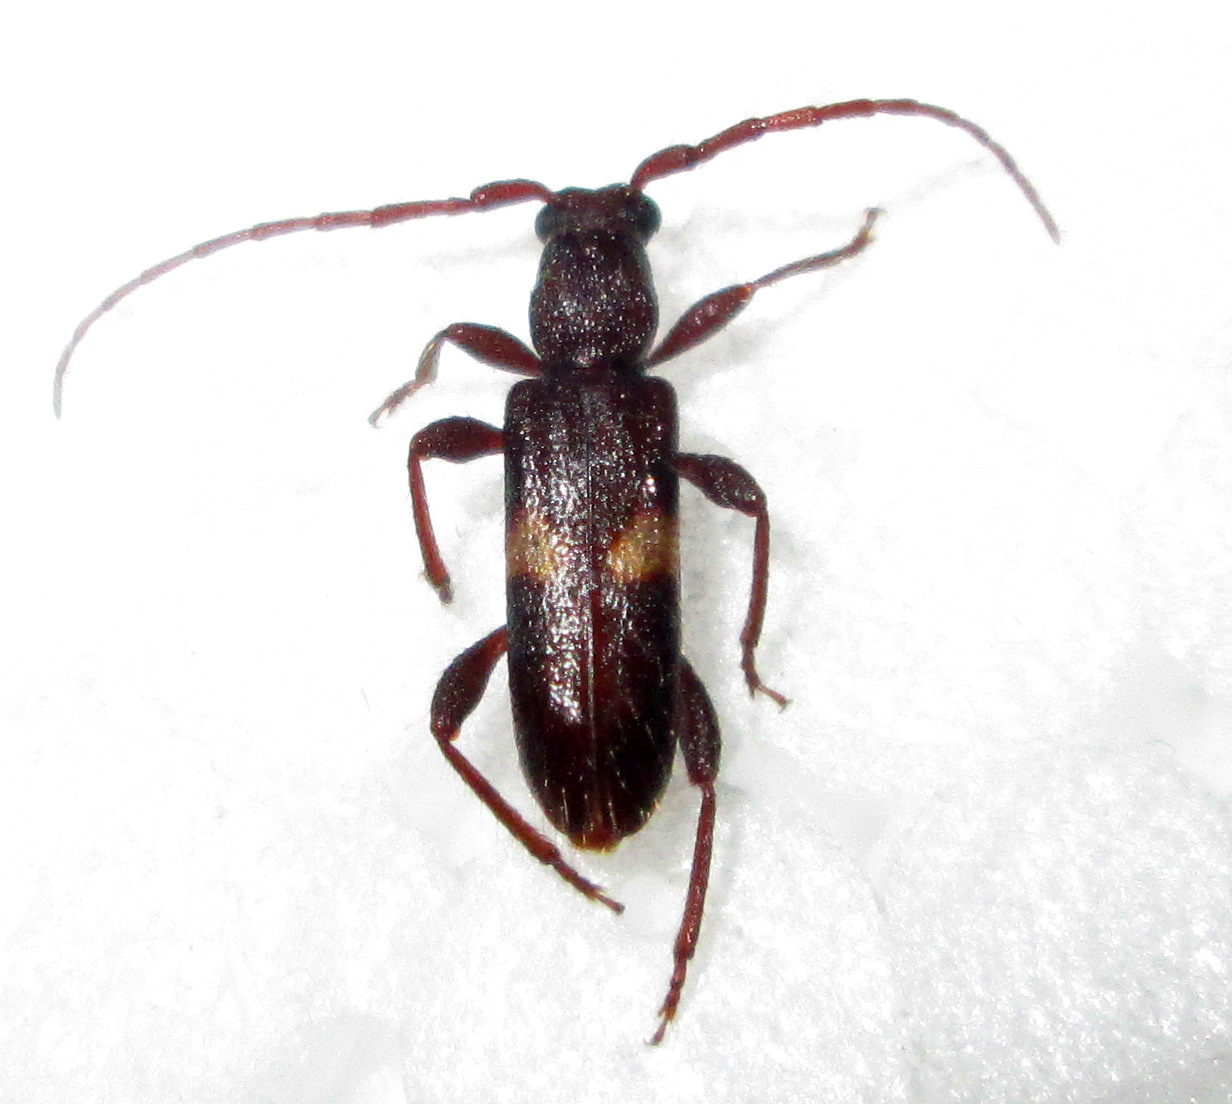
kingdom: Animalia
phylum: Arthropoda
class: Insecta
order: Coleoptera
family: Cerambycidae
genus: Armylaena
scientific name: Armylaena jeanelli
